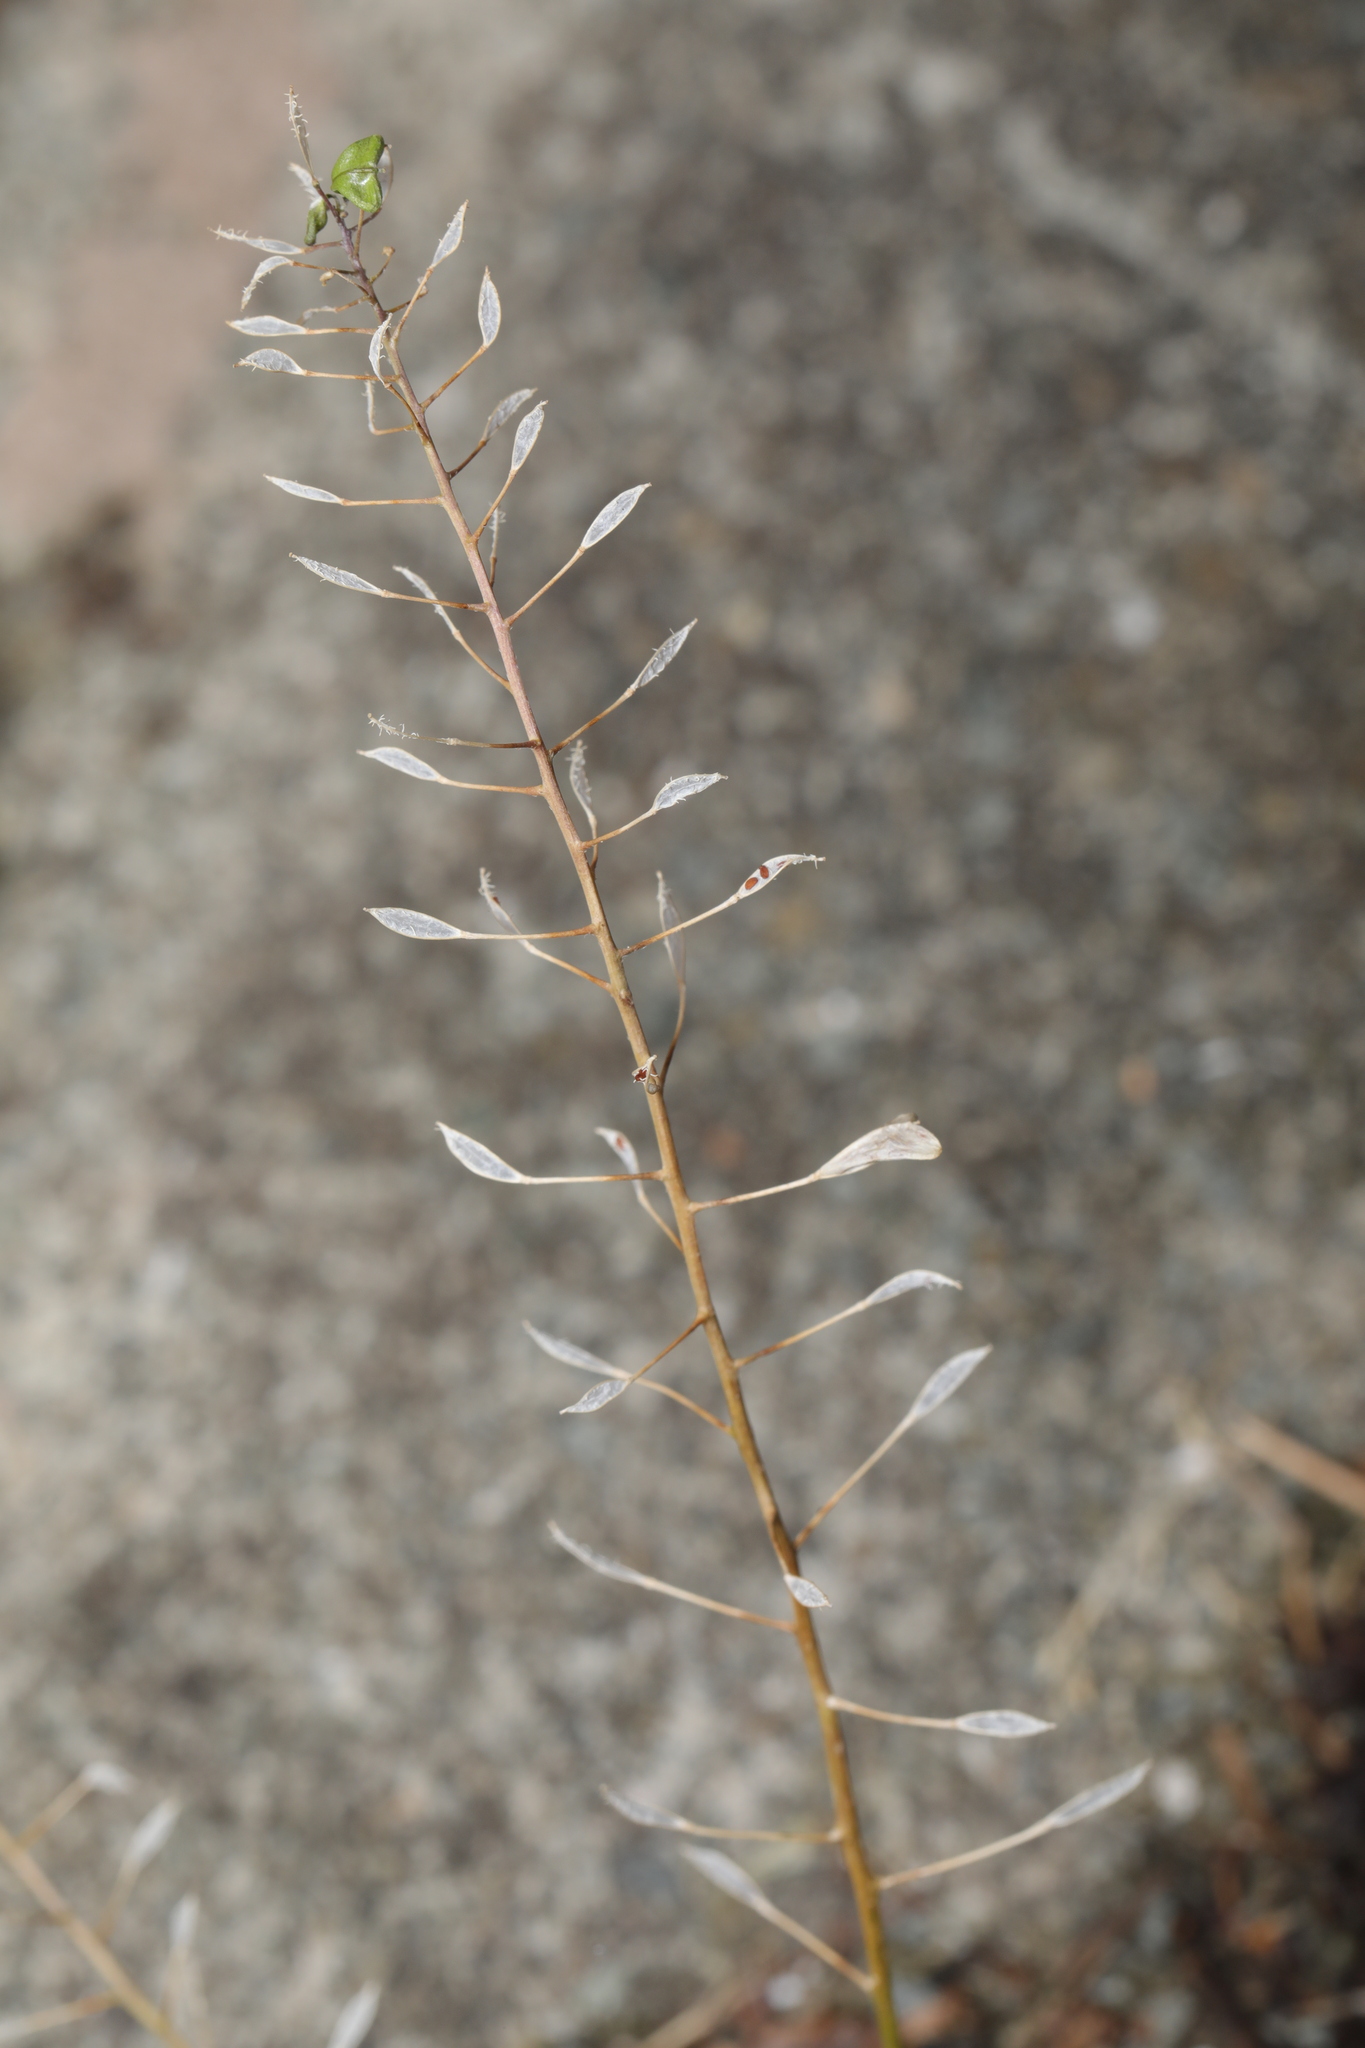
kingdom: Plantae
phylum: Tracheophyta
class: Magnoliopsida
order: Brassicales
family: Brassicaceae
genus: Capsella
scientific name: Capsella bursa-pastoris
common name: Shepherd's purse
